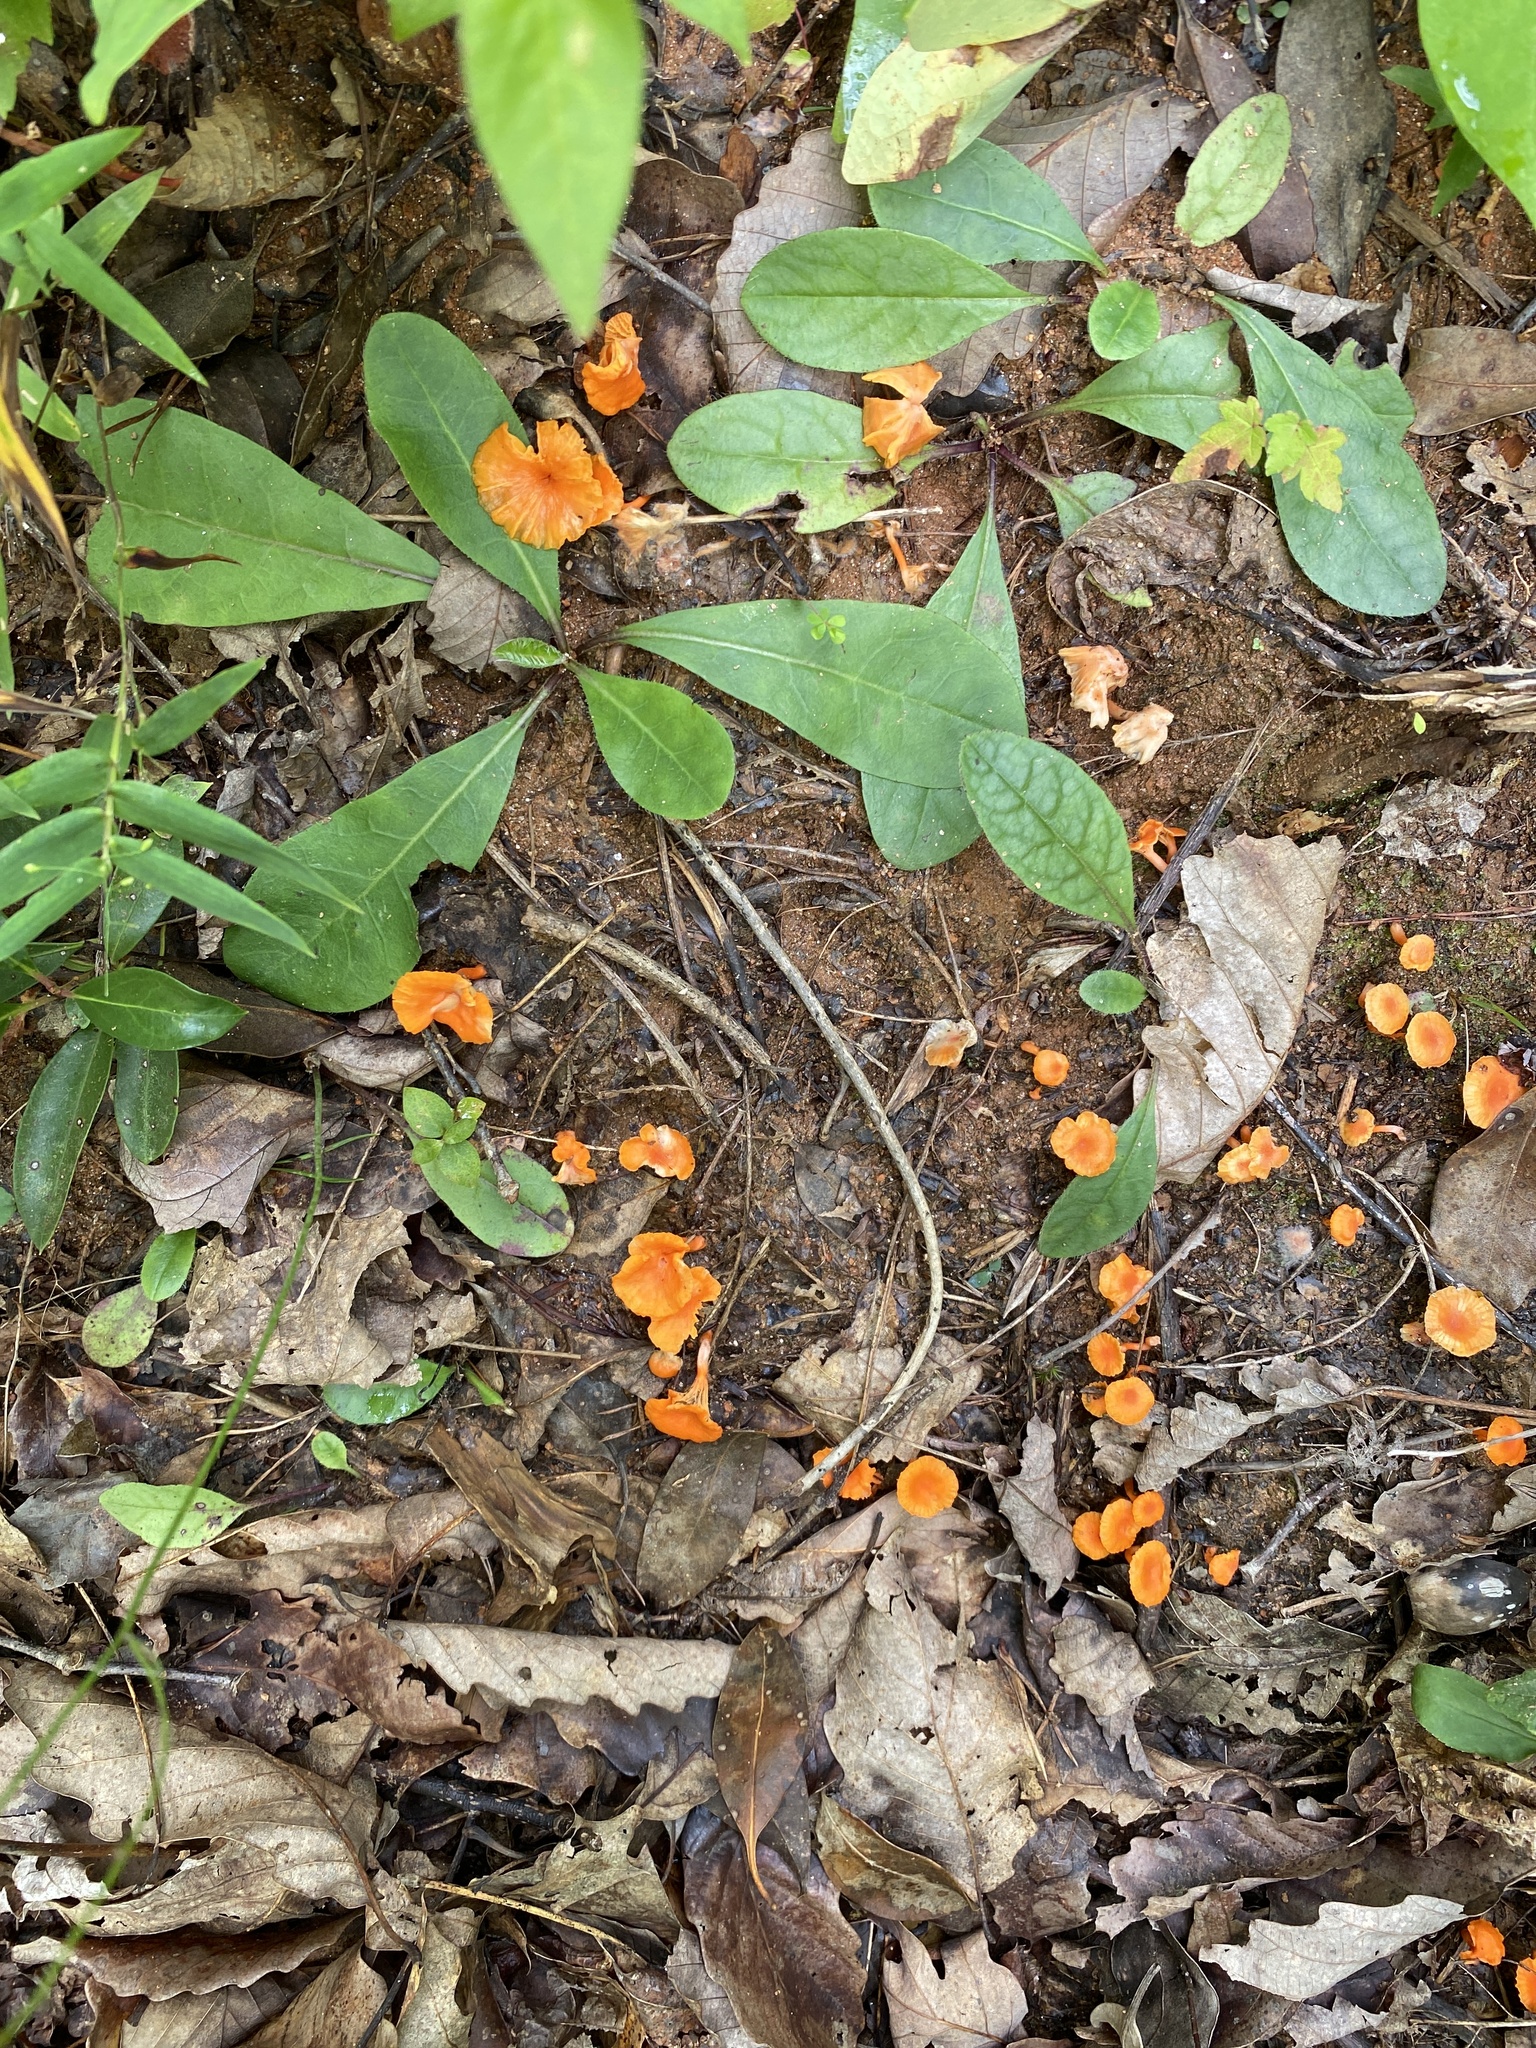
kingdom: Fungi
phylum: Basidiomycota
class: Agaricomycetes
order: Cantharellales
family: Hydnaceae
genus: Cantharellus
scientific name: Cantharellus cinnabarinus
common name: Cinnabar chanterelle
